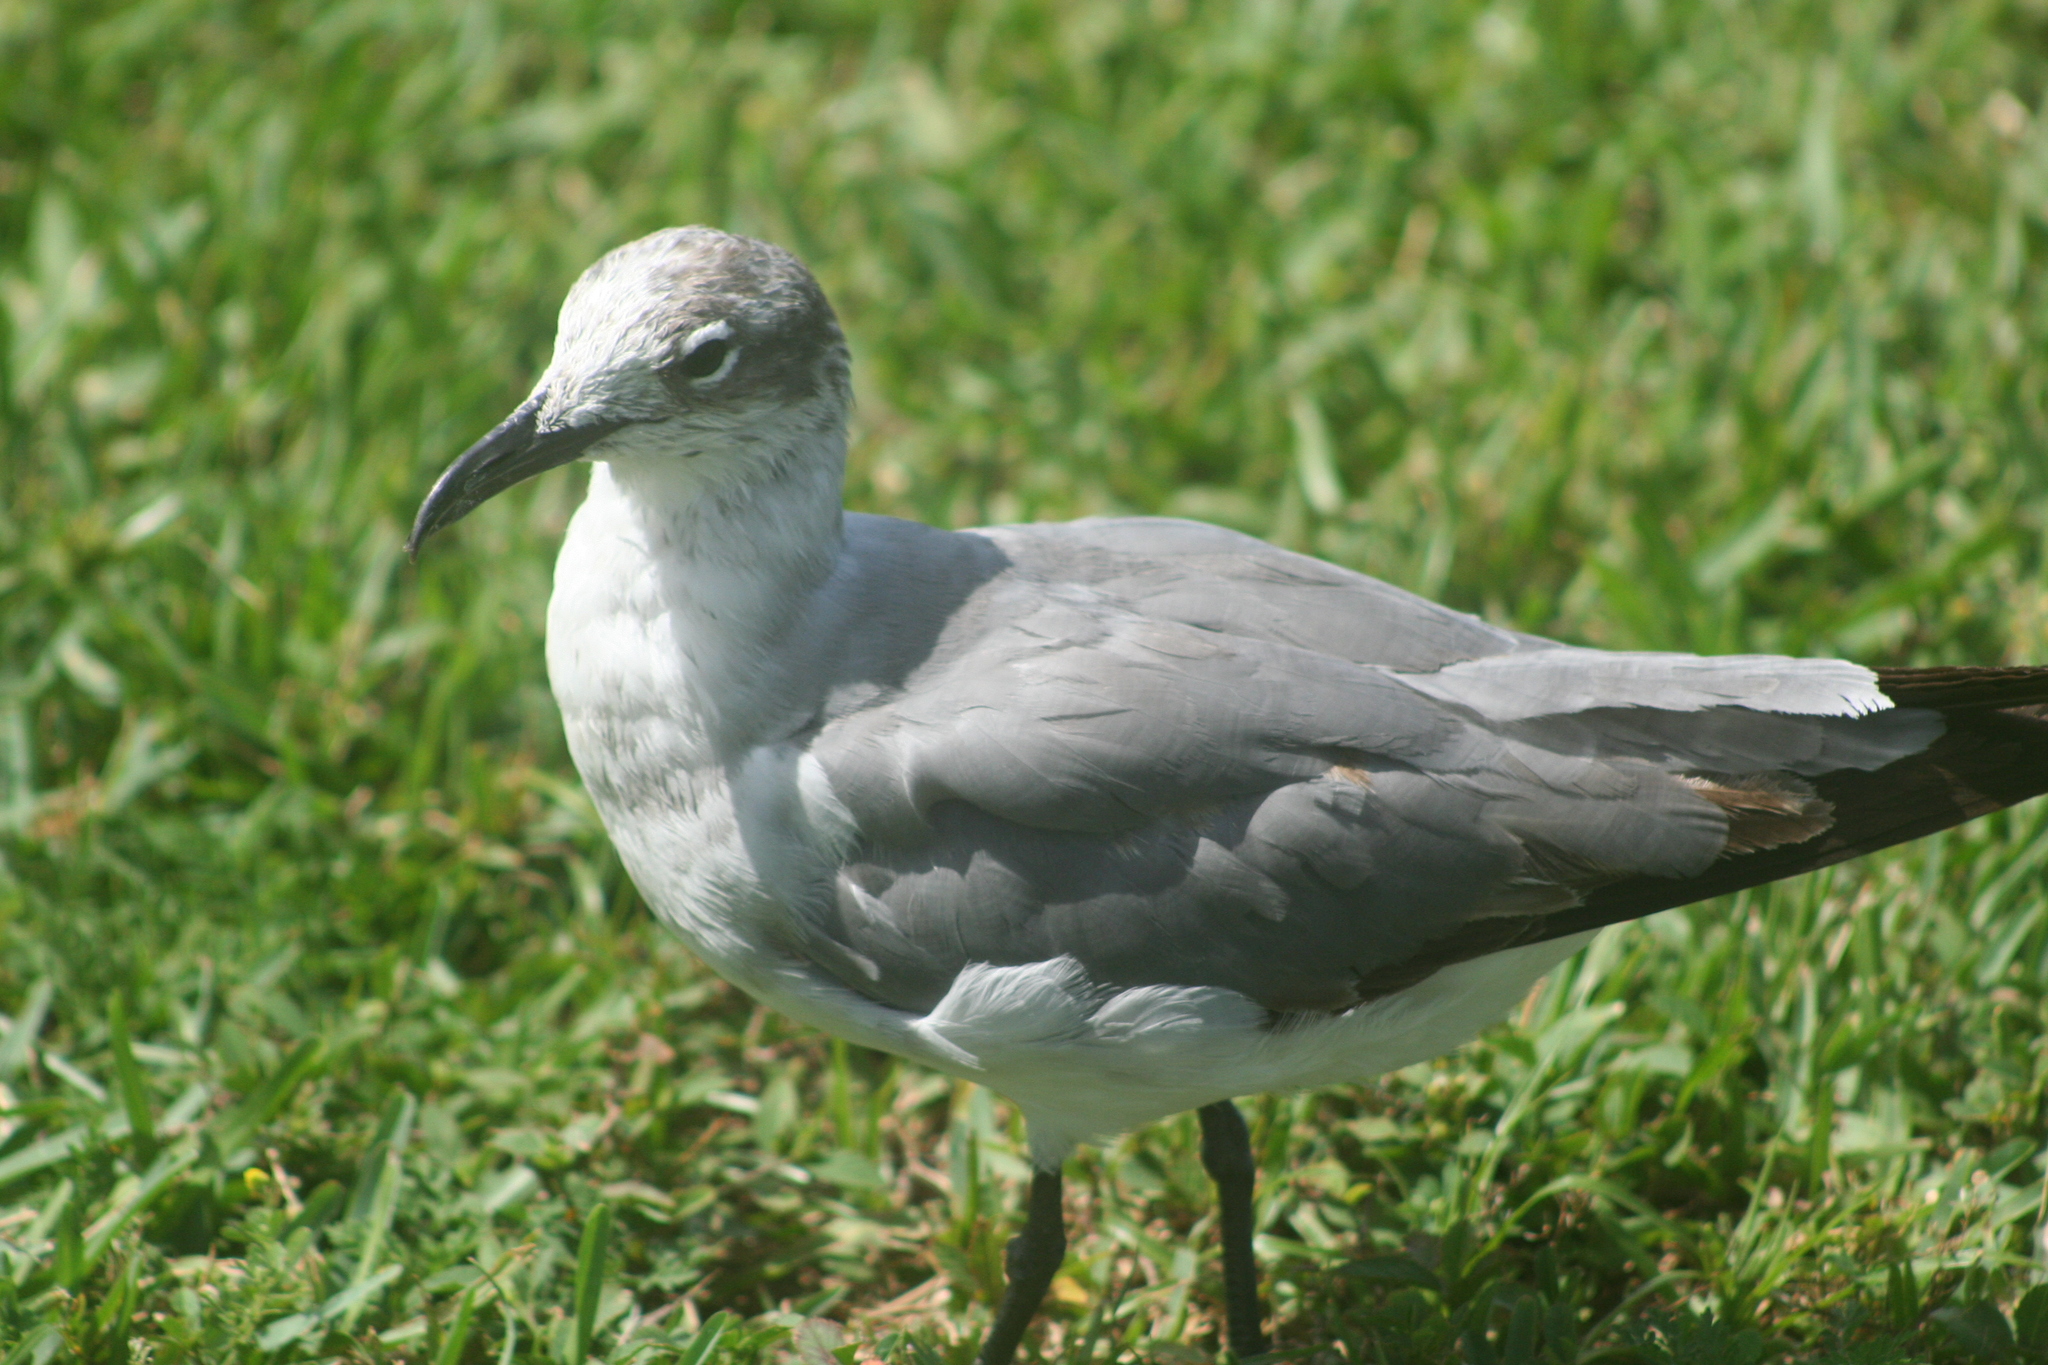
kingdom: Animalia
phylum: Chordata
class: Aves
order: Charadriiformes
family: Laridae
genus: Leucophaeus
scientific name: Leucophaeus atricilla
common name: Laughing gull
